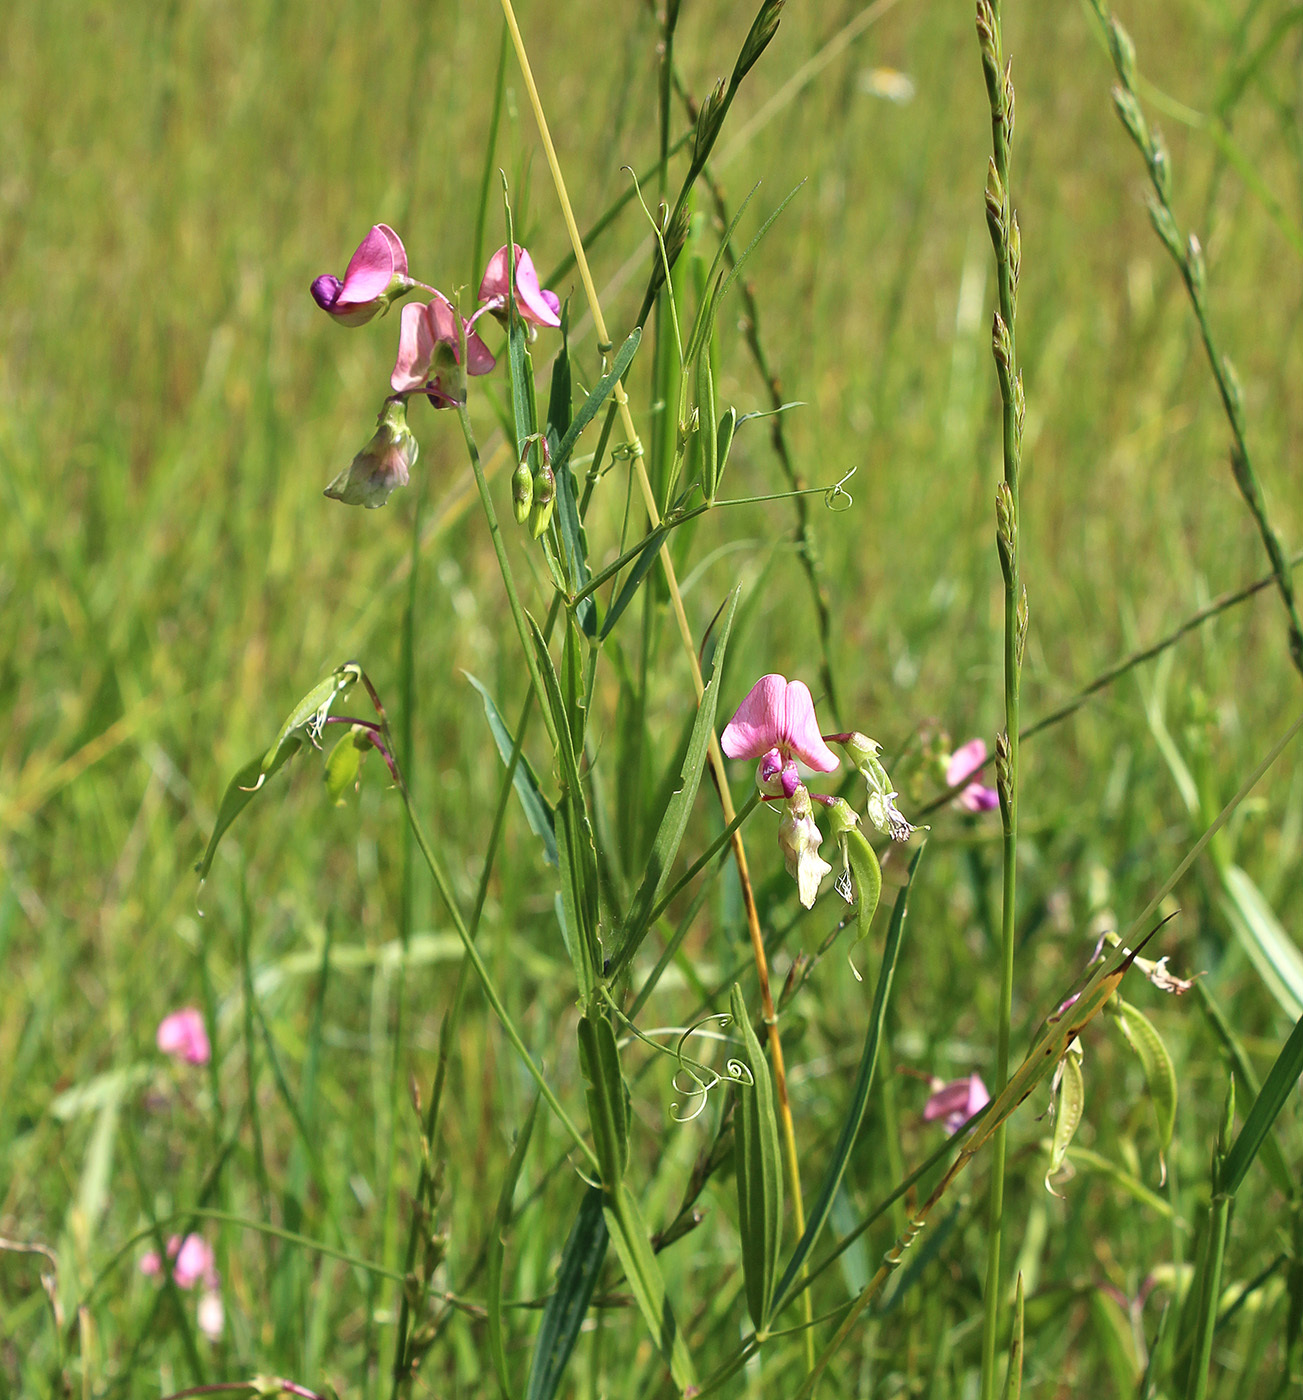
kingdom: Plantae
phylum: Tracheophyta
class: Magnoliopsida
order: Fabales
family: Fabaceae
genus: Lathyrus
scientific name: Lathyrus sylvestris
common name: Flat pea
